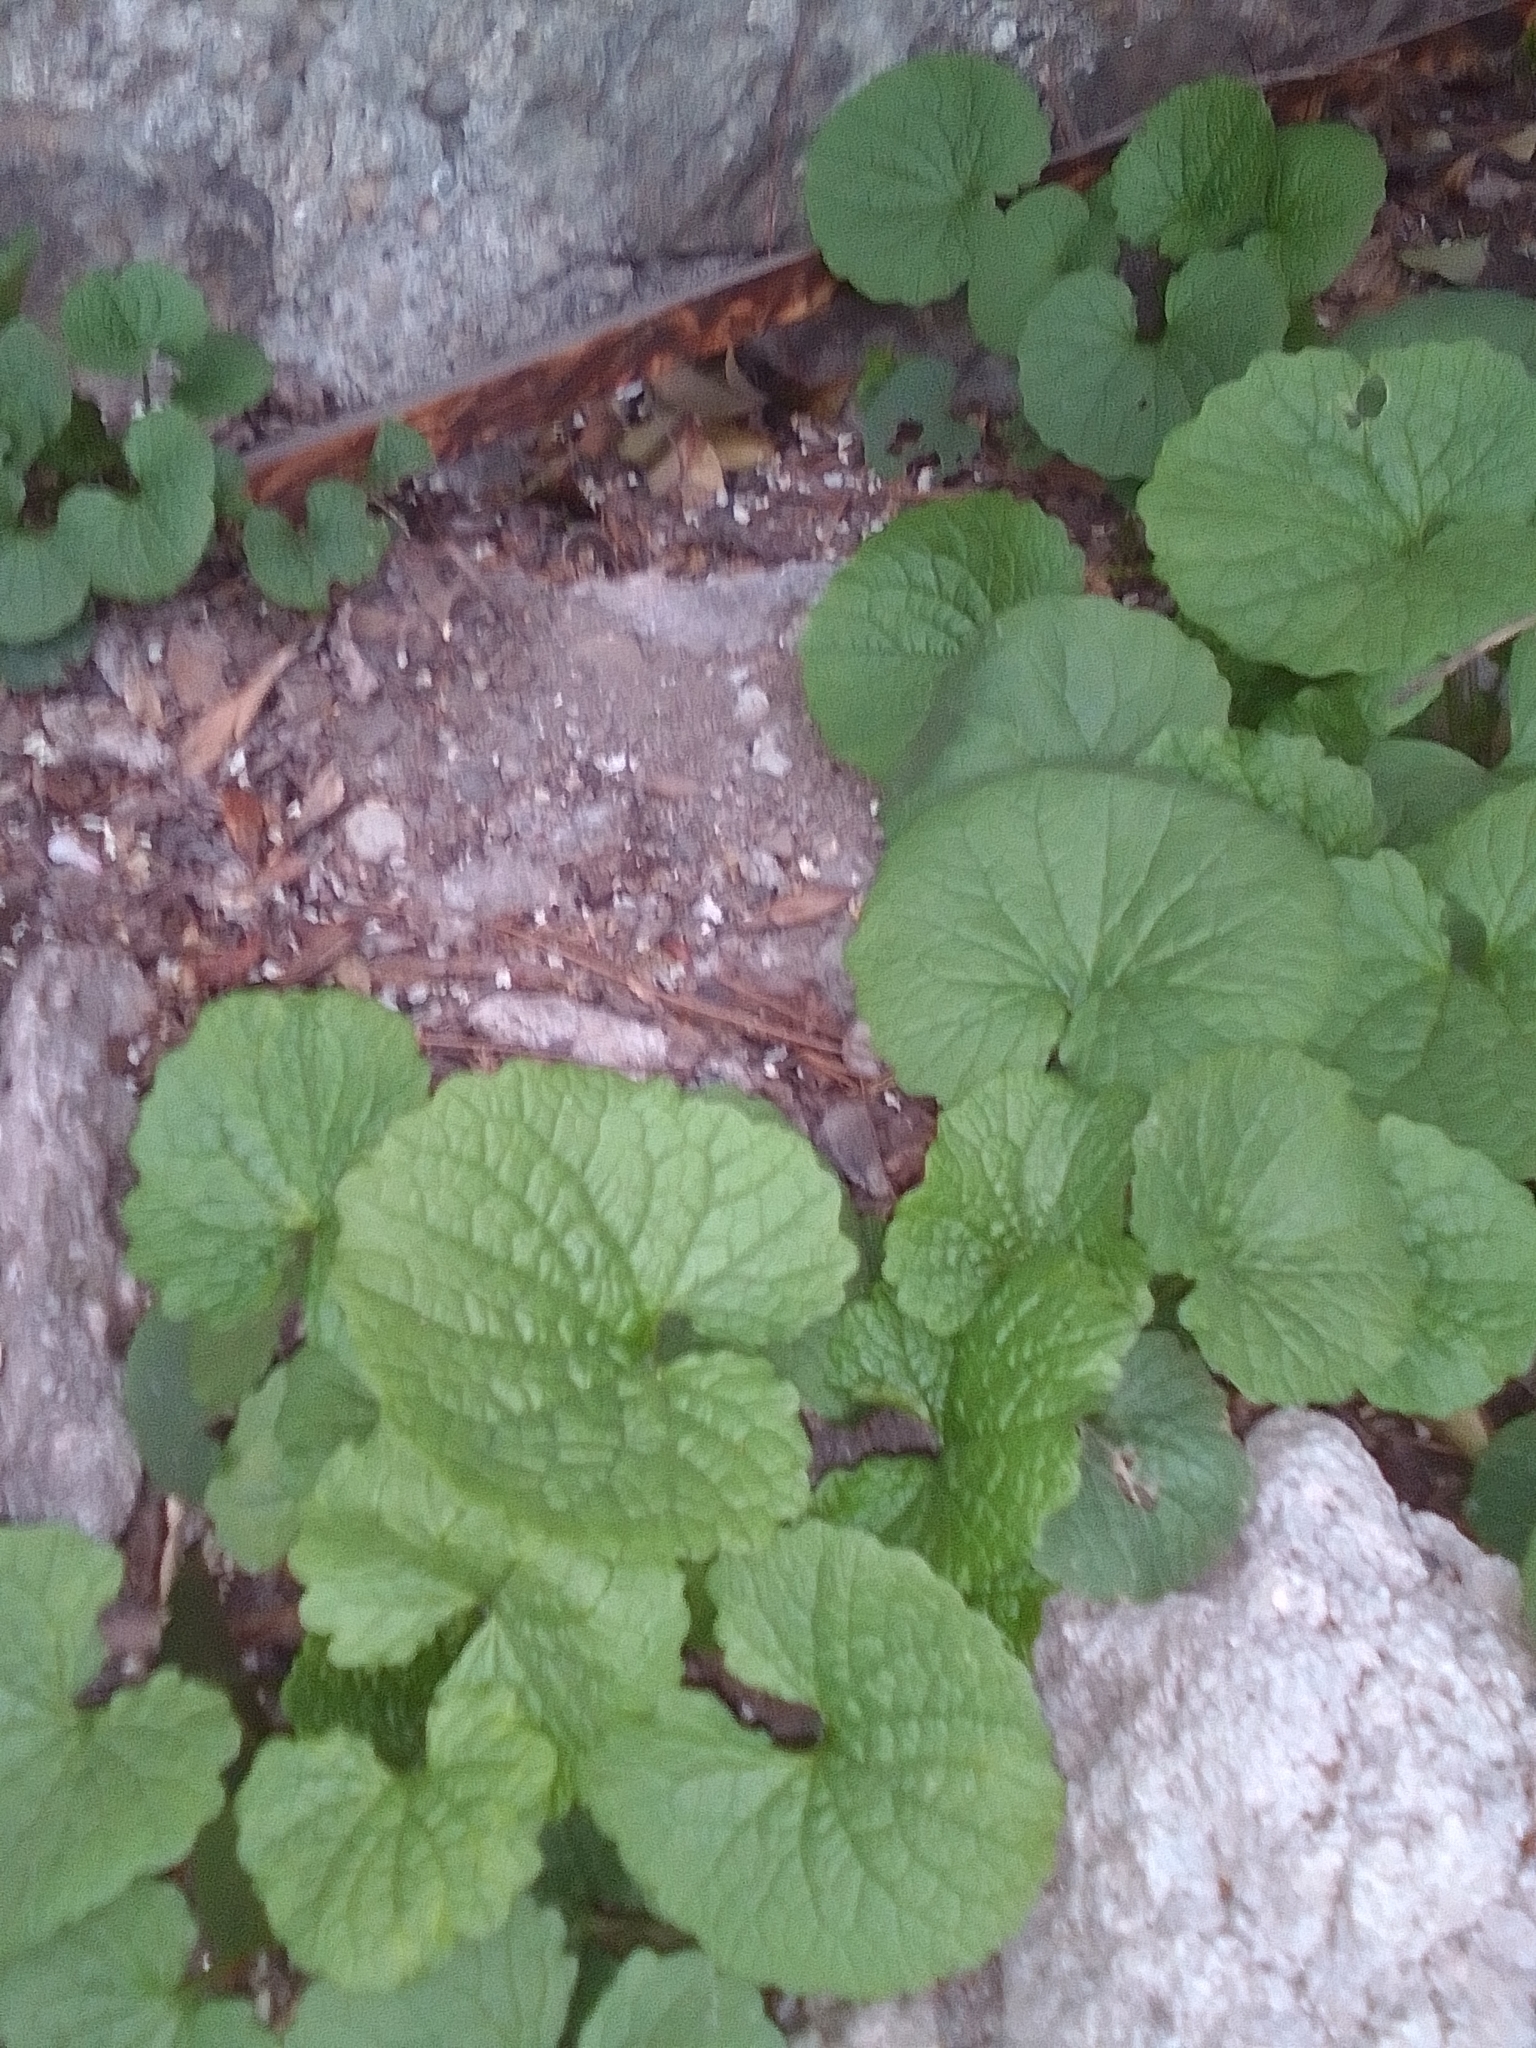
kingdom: Plantae
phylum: Tracheophyta
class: Magnoliopsida
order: Brassicales
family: Brassicaceae
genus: Alliaria
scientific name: Alliaria petiolata
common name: Garlic mustard
